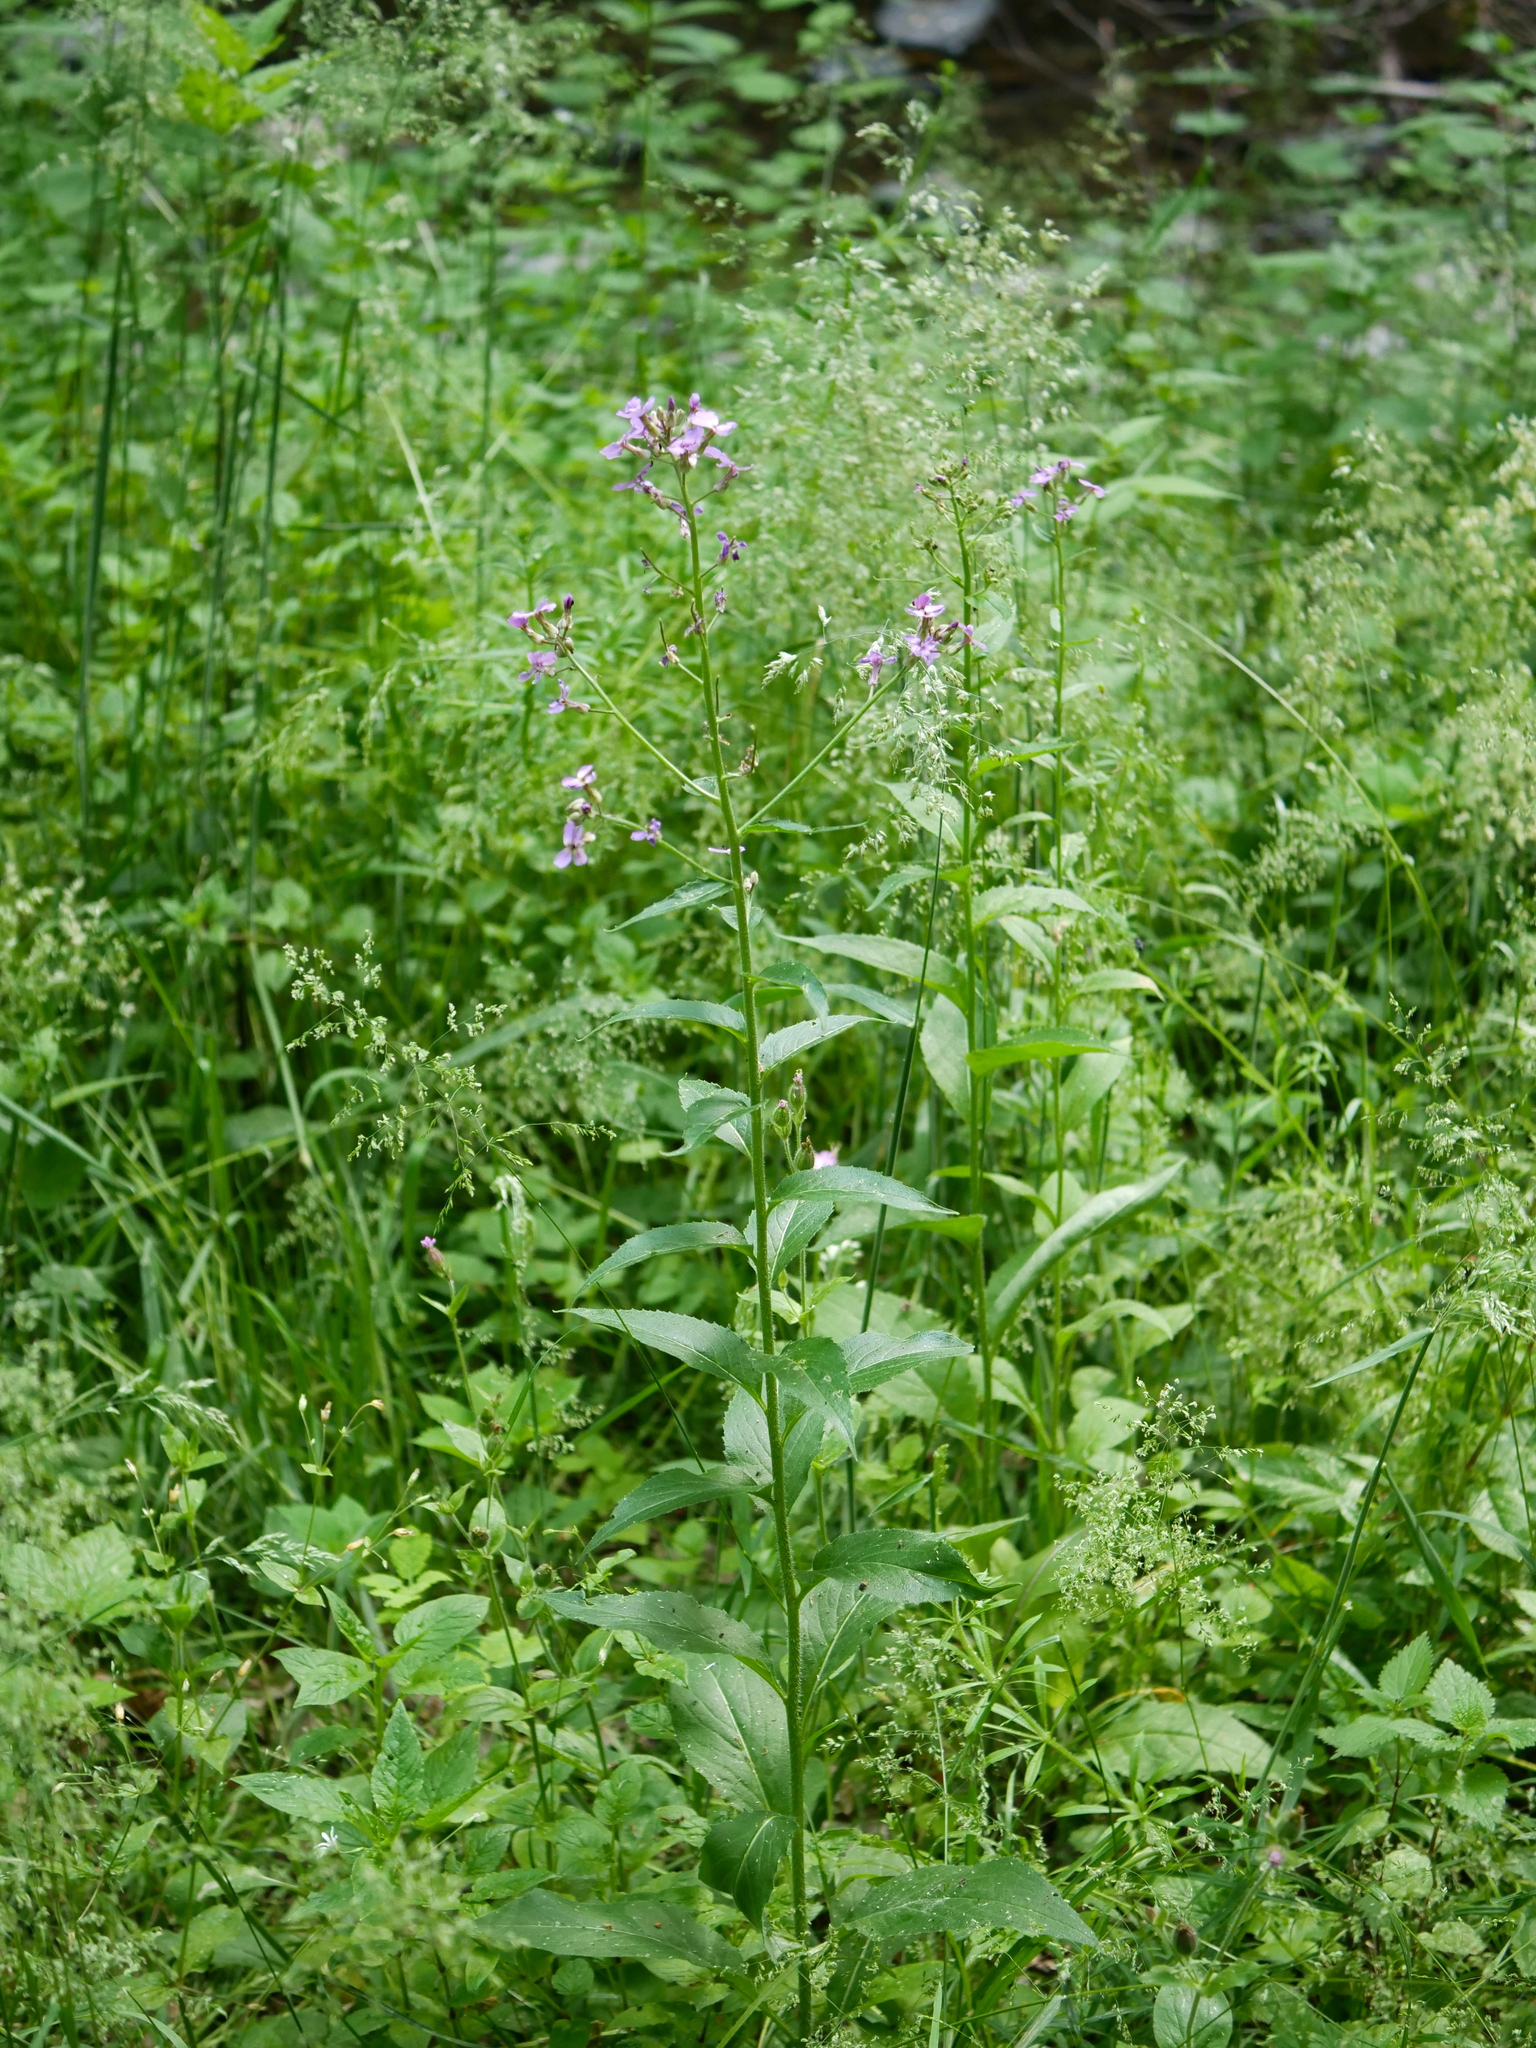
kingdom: Plantae
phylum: Tracheophyta
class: Magnoliopsida
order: Brassicales
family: Brassicaceae
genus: Hesperis
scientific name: Hesperis matronalis
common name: Dame's-violet
